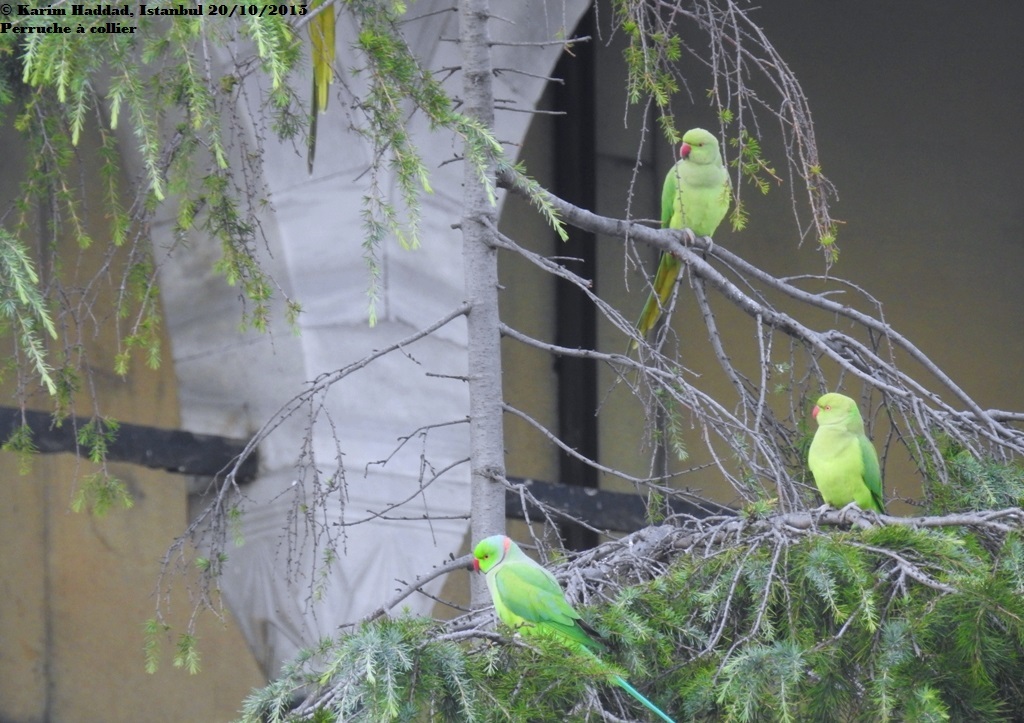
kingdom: Animalia
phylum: Chordata
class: Aves
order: Psittaciformes
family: Psittacidae
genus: Psittacula
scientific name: Psittacula krameri
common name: Rose-ringed parakeet
